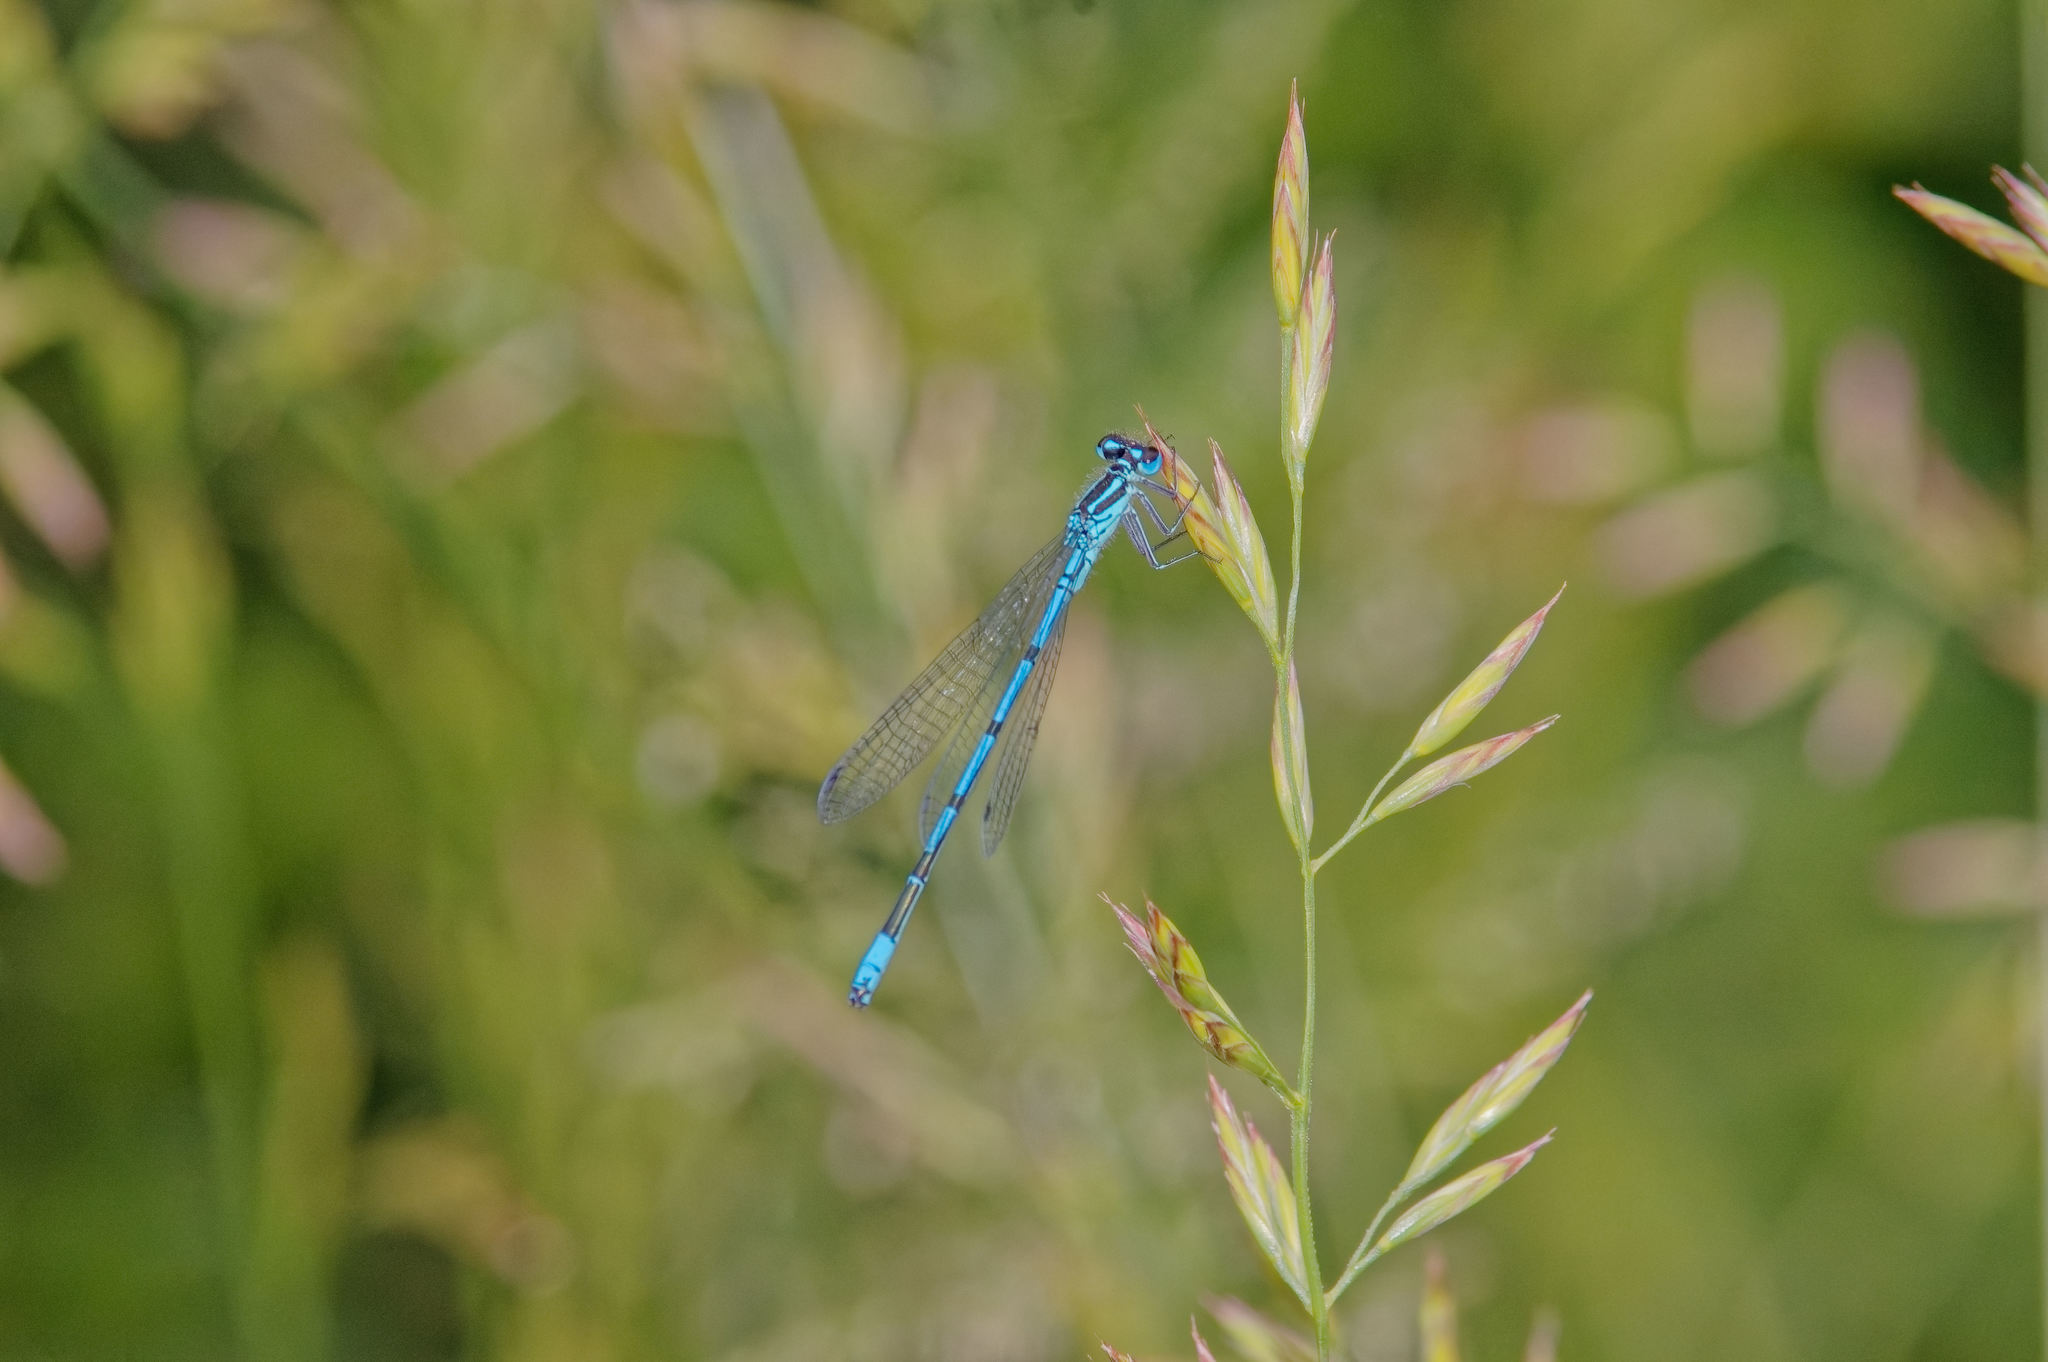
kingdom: Animalia
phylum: Arthropoda
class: Insecta
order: Odonata
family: Coenagrionidae
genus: Coenagrion
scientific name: Coenagrion puella
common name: Azure damselfly
